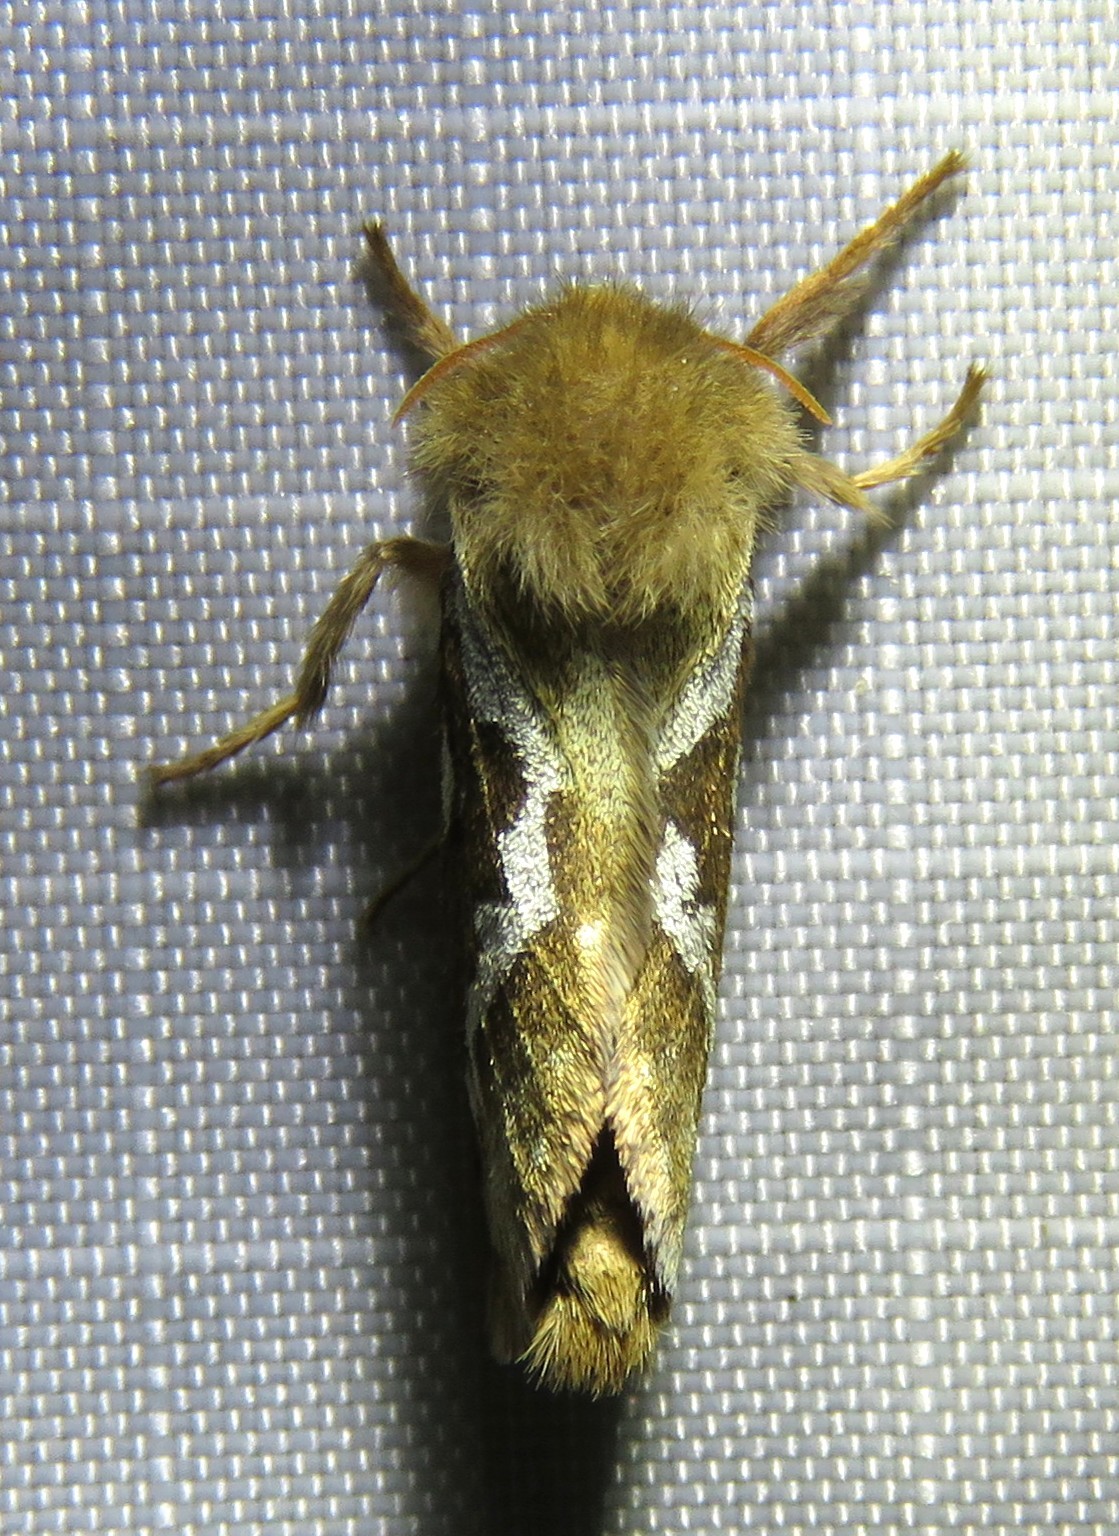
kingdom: Animalia
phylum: Arthropoda
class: Insecta
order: Lepidoptera
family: Hepialidae
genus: Korscheltellus
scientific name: Korscheltellus lupulina
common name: Common swift
